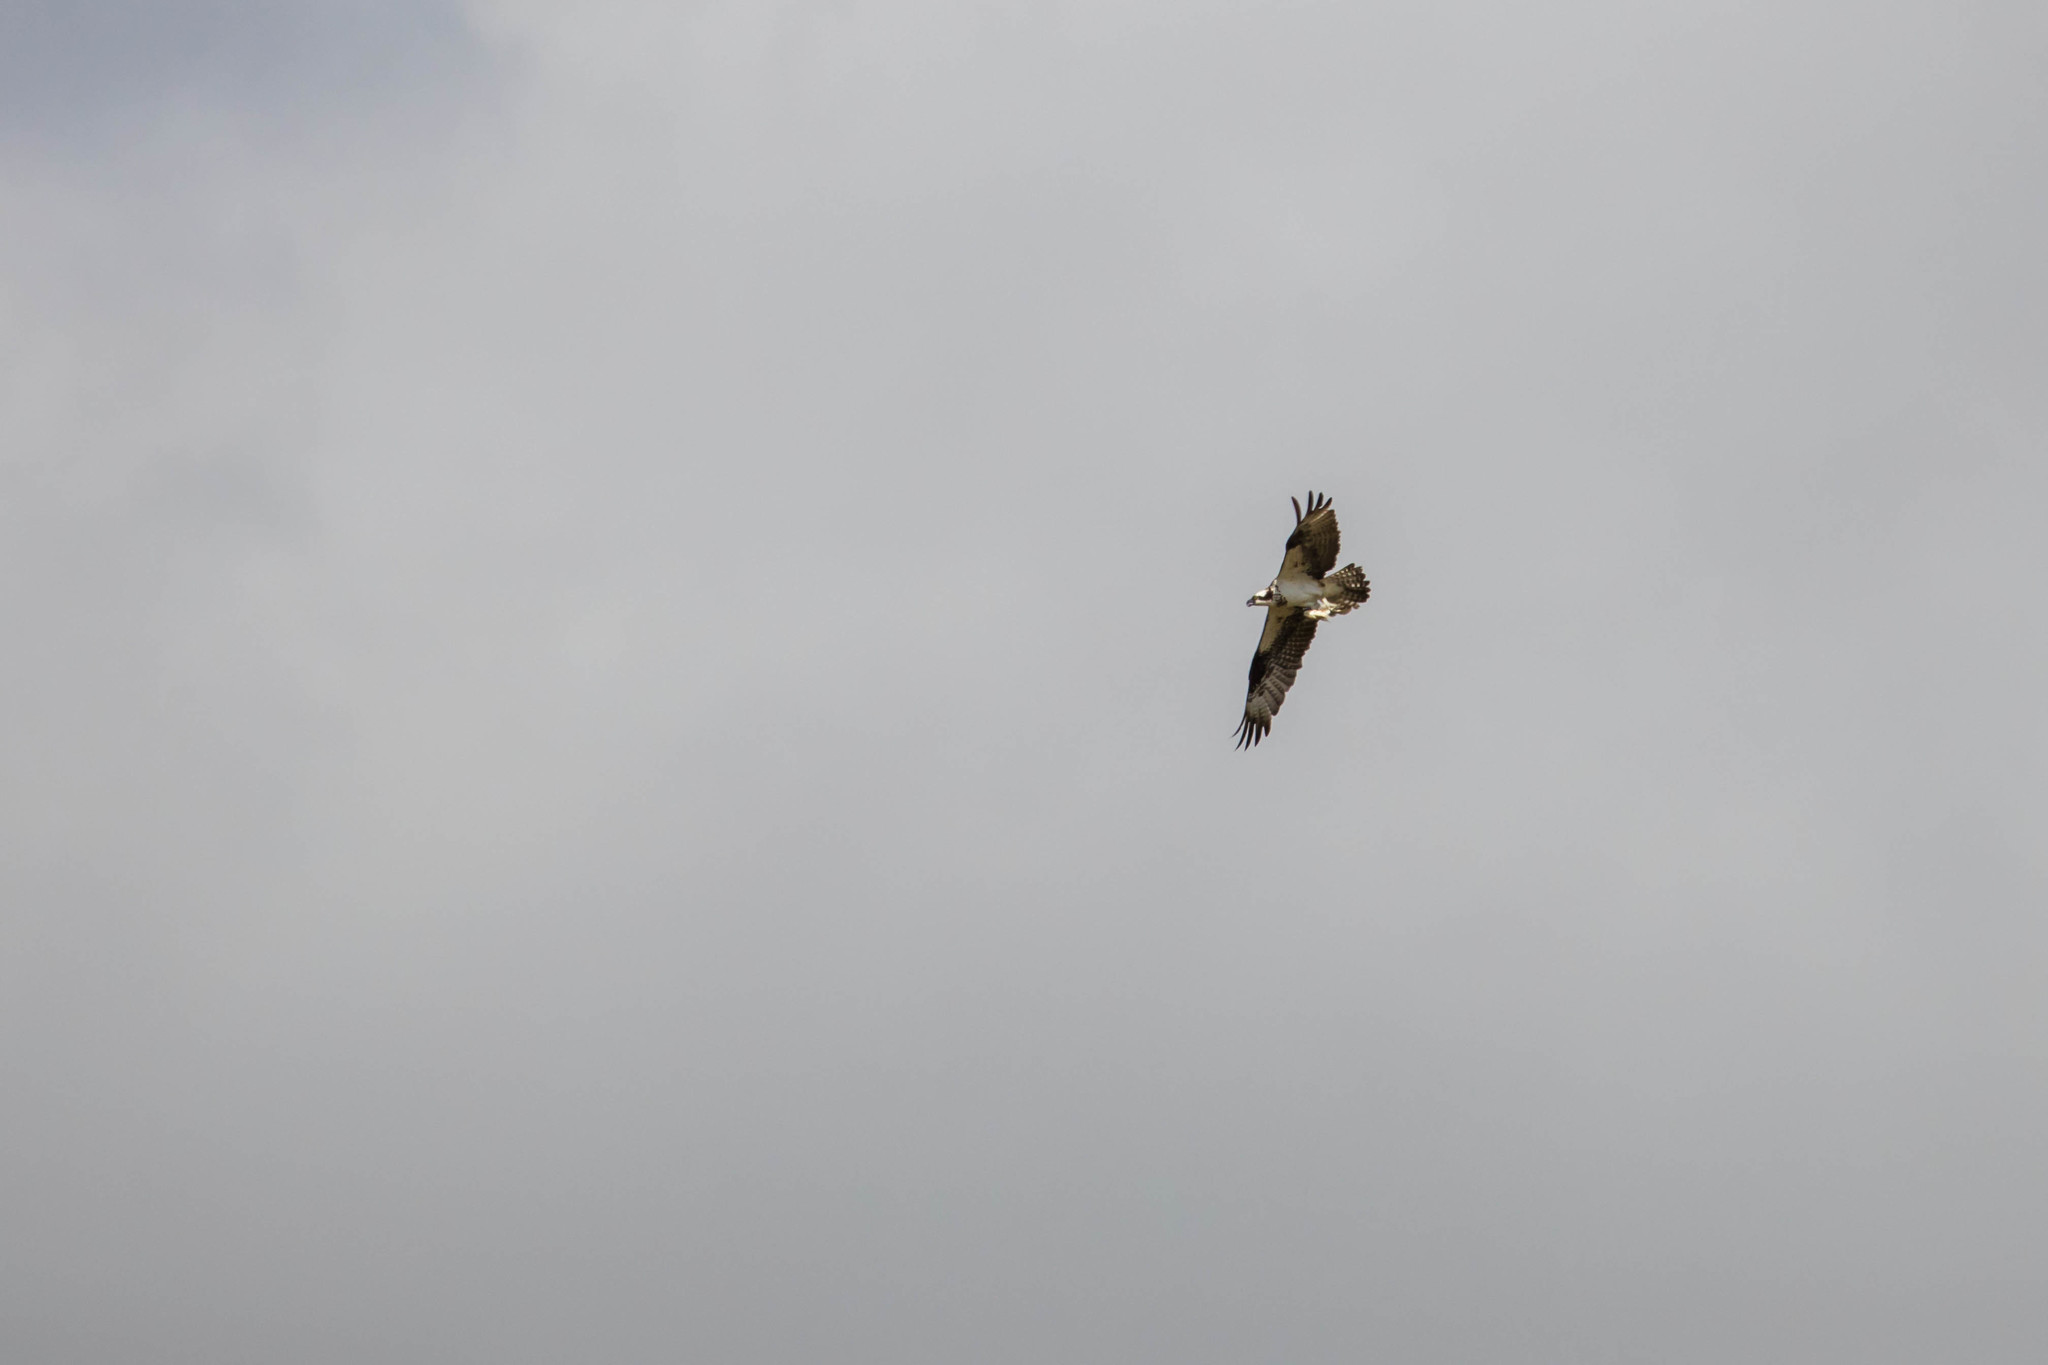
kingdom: Animalia
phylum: Chordata
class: Aves
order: Accipitriformes
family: Pandionidae
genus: Pandion
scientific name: Pandion haliaetus
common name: Osprey
